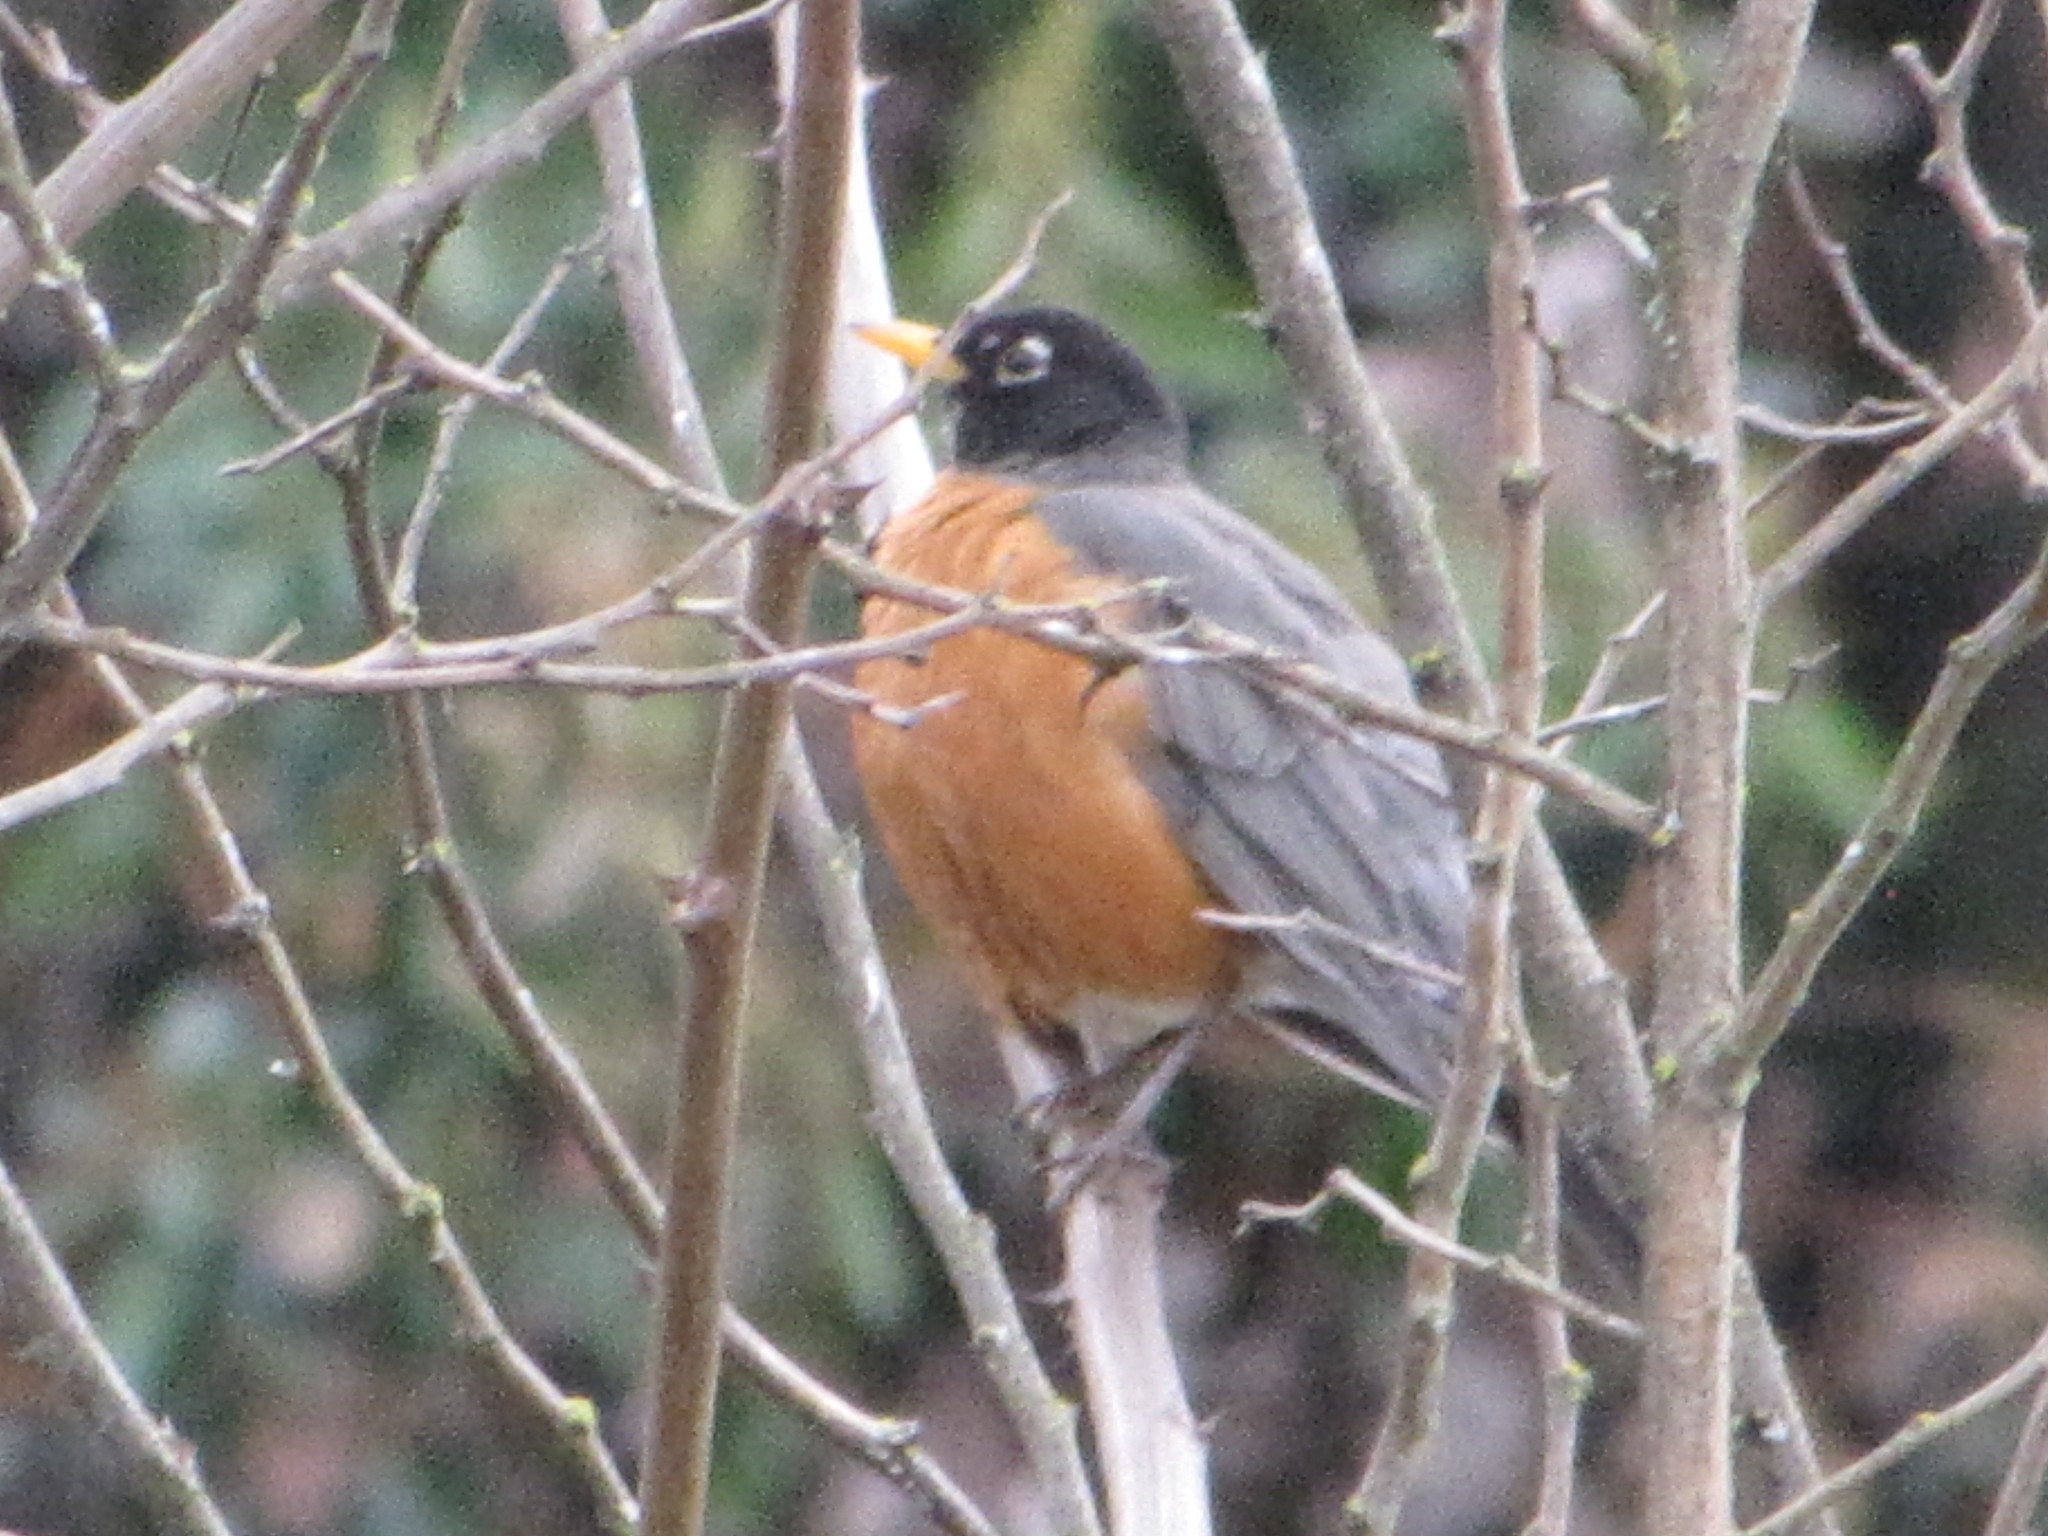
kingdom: Animalia
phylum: Chordata
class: Aves
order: Passeriformes
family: Turdidae
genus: Turdus
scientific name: Turdus migratorius
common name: American robin
